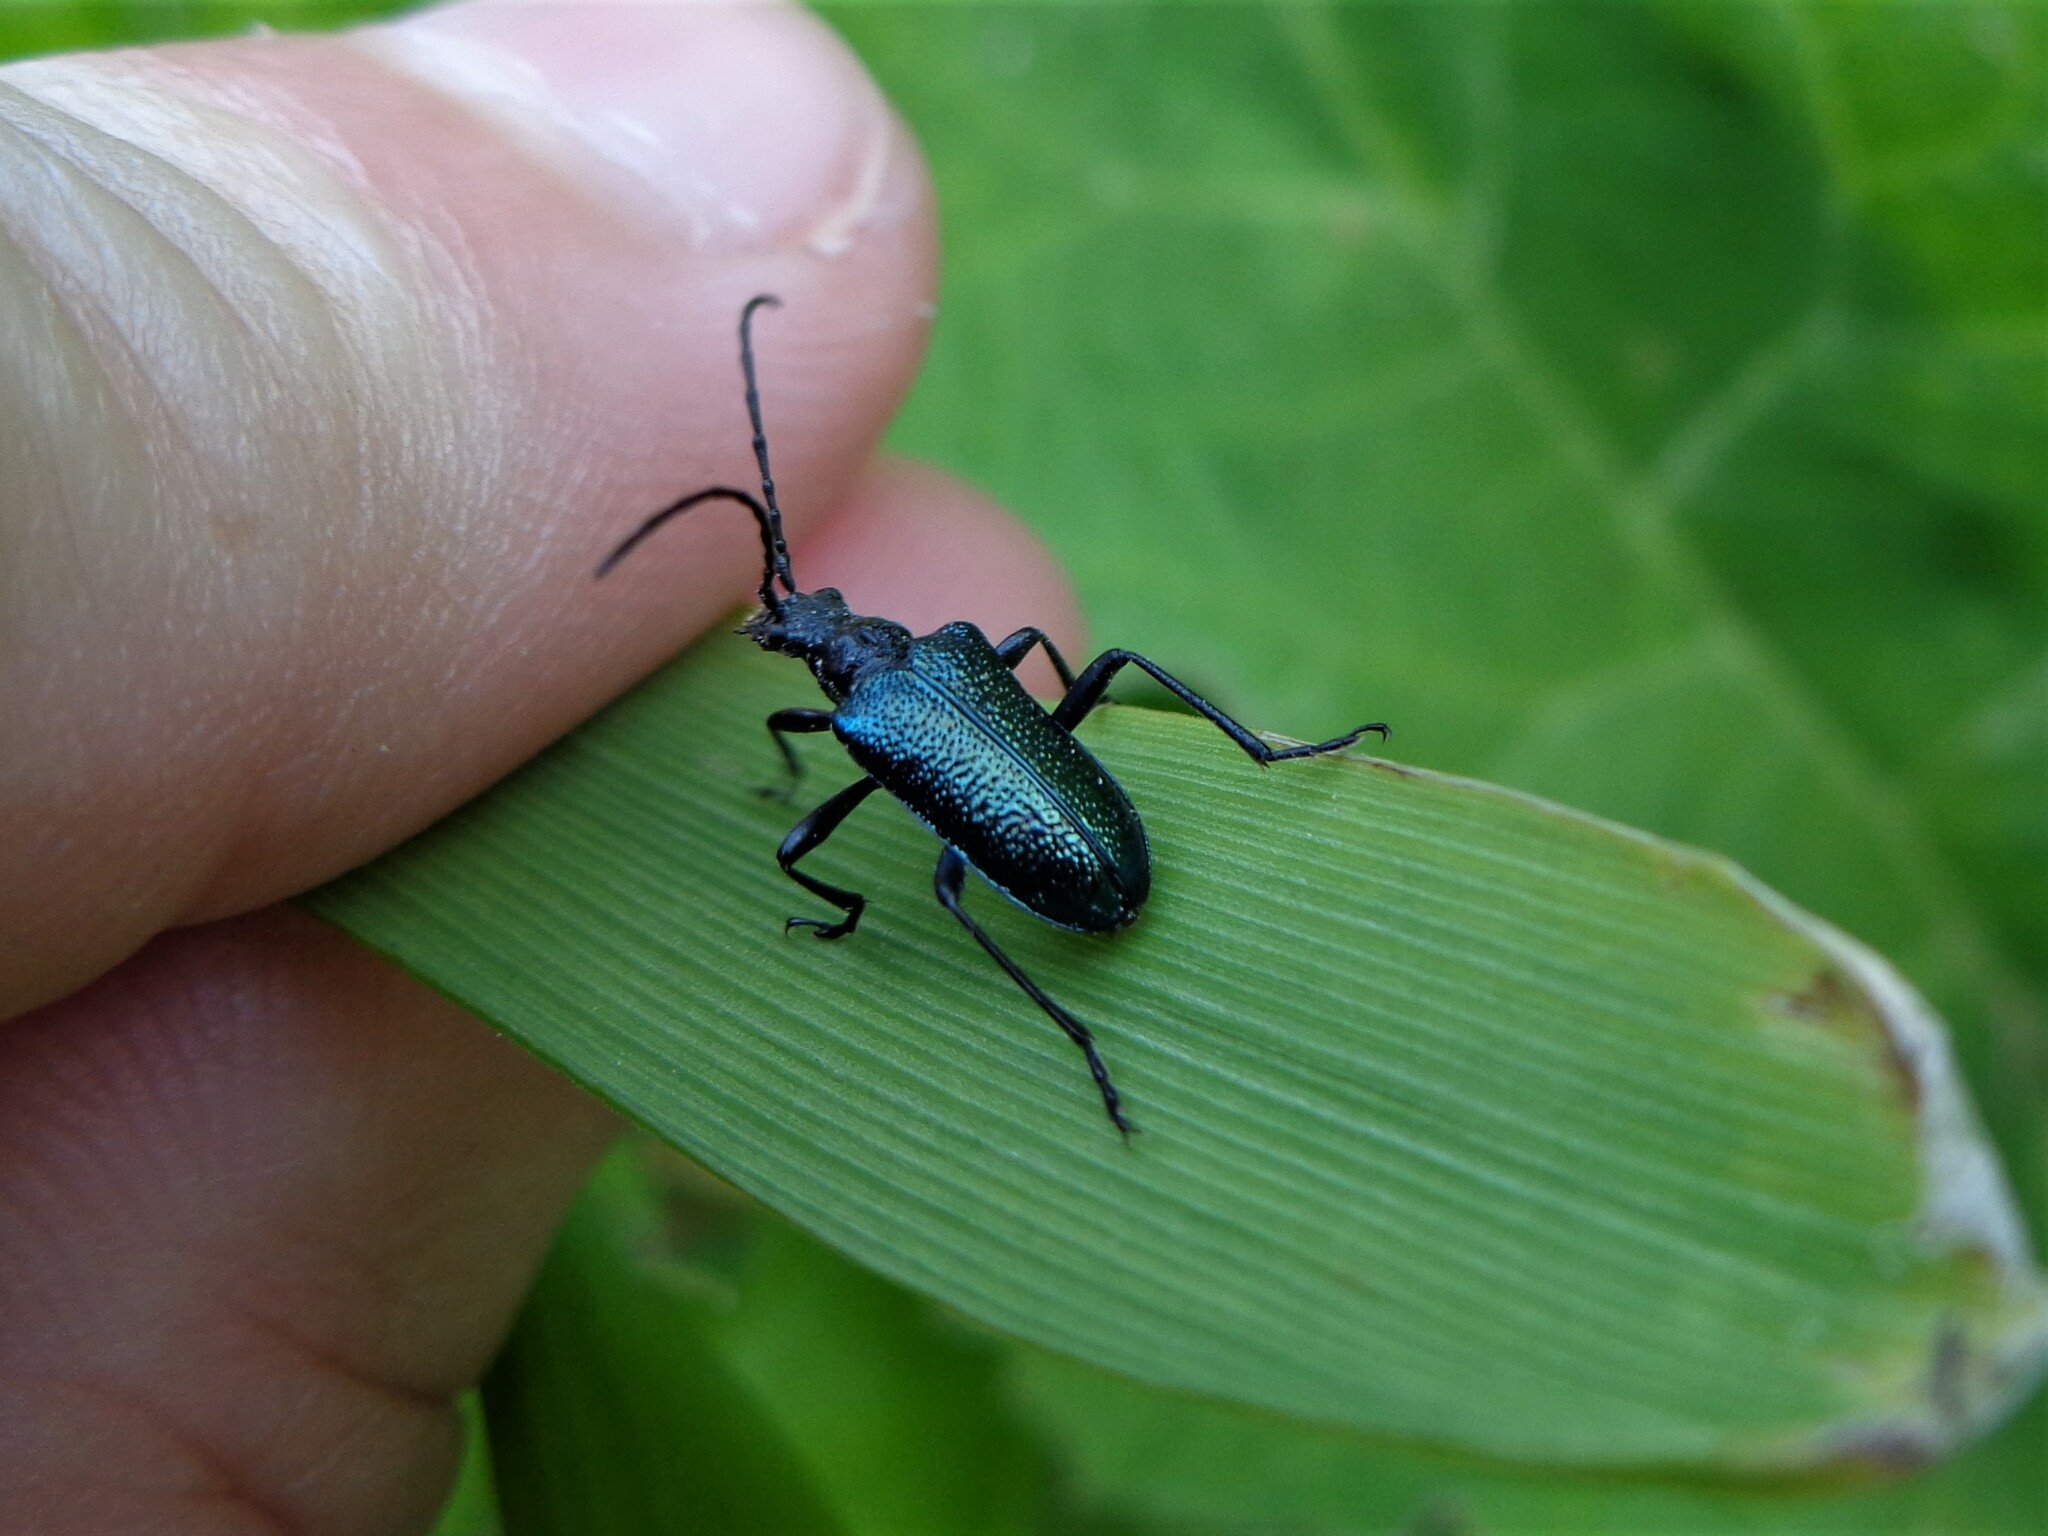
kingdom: Animalia
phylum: Arthropoda
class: Insecta
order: Coleoptera
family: Cerambycidae
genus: Gaurotes
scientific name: Gaurotes virginea
